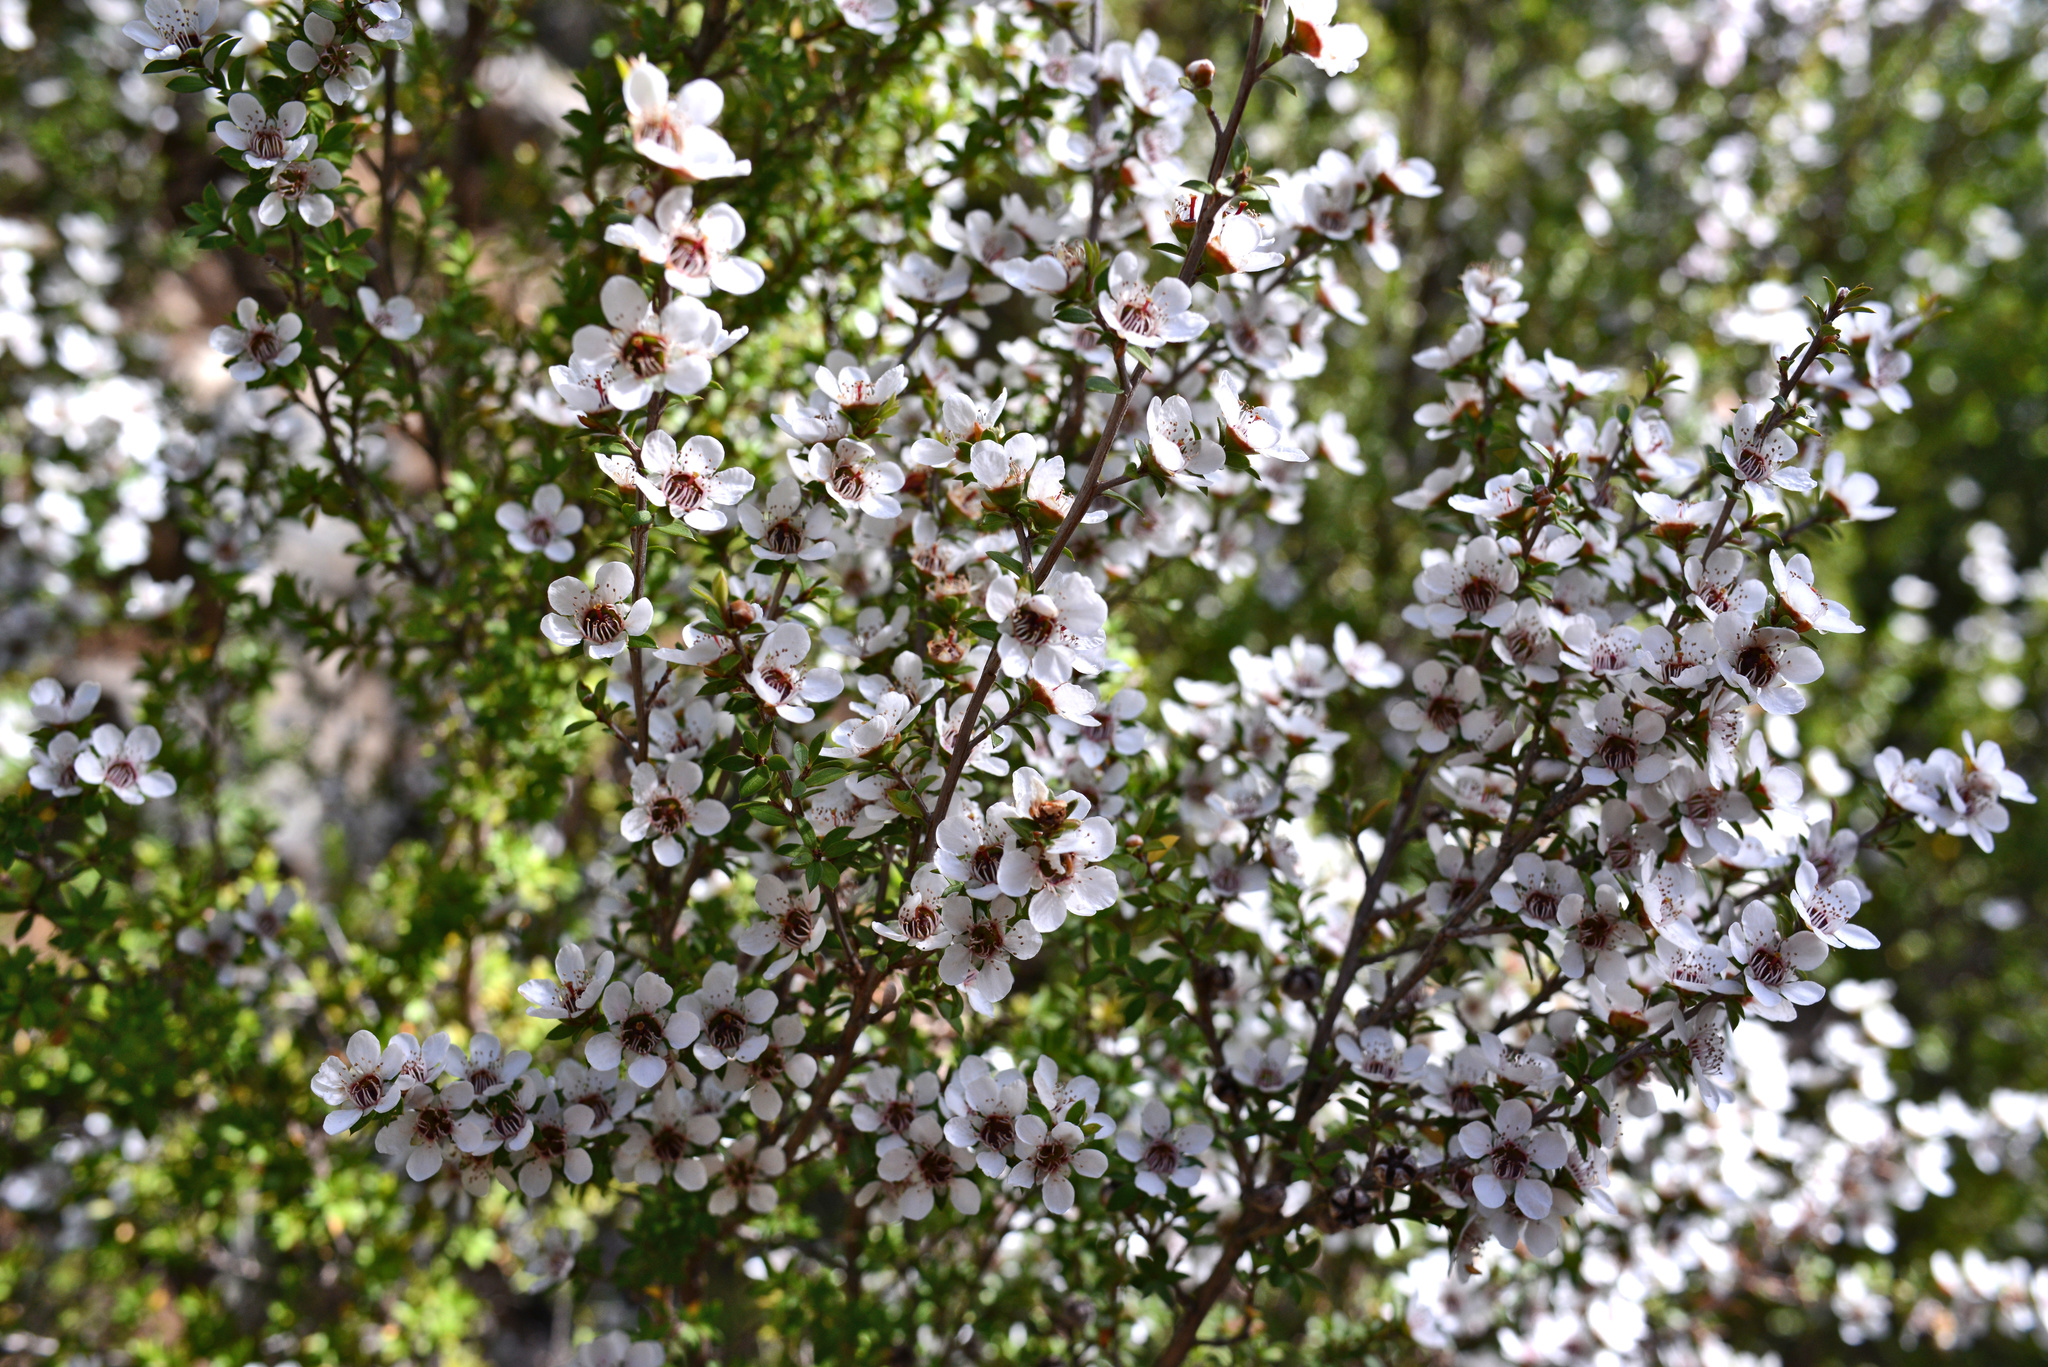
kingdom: Plantae
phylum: Tracheophyta
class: Magnoliopsida
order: Myrtales
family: Myrtaceae
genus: Leptospermum
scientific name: Leptospermum scoparium
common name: Broom tea-tree
